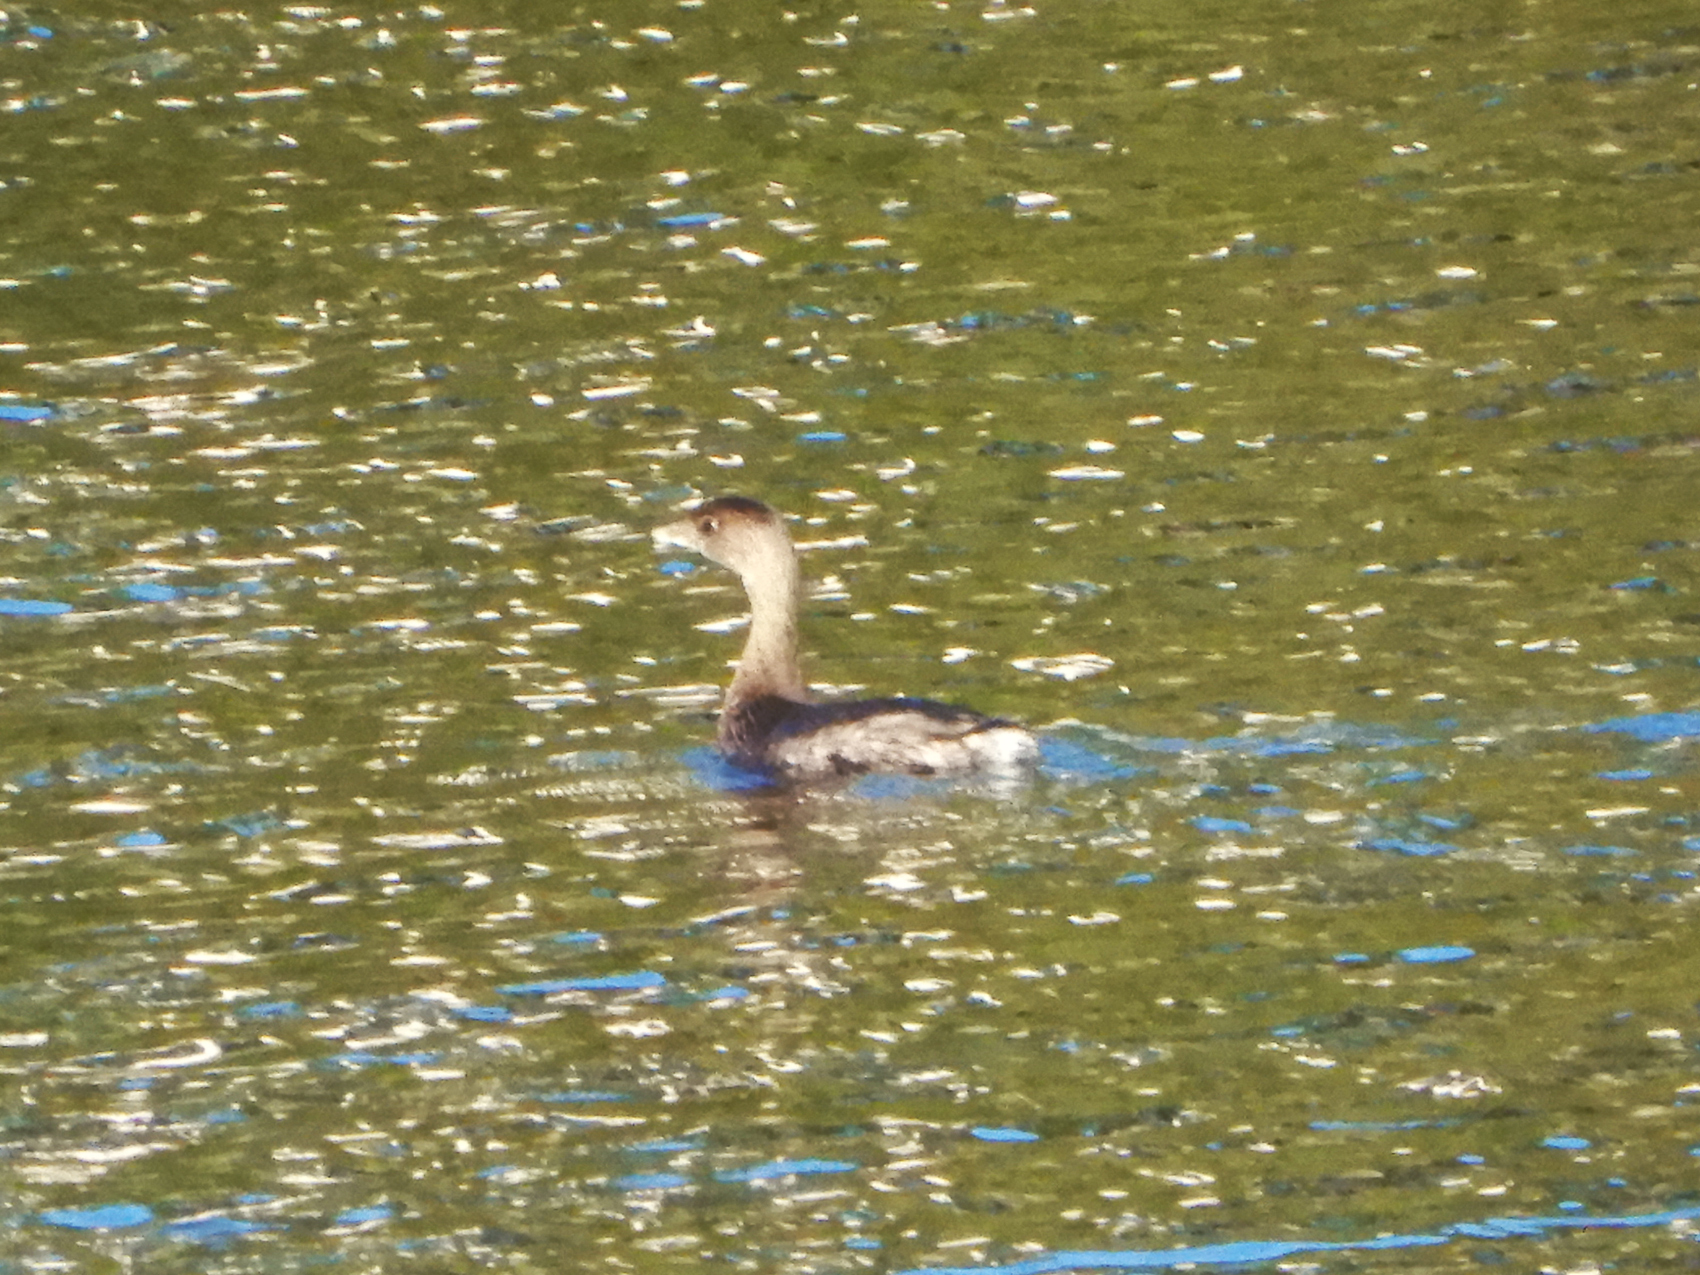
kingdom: Animalia
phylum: Chordata
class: Aves
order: Podicipediformes
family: Podicipedidae
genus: Podilymbus
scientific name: Podilymbus podiceps
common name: Pied-billed grebe
